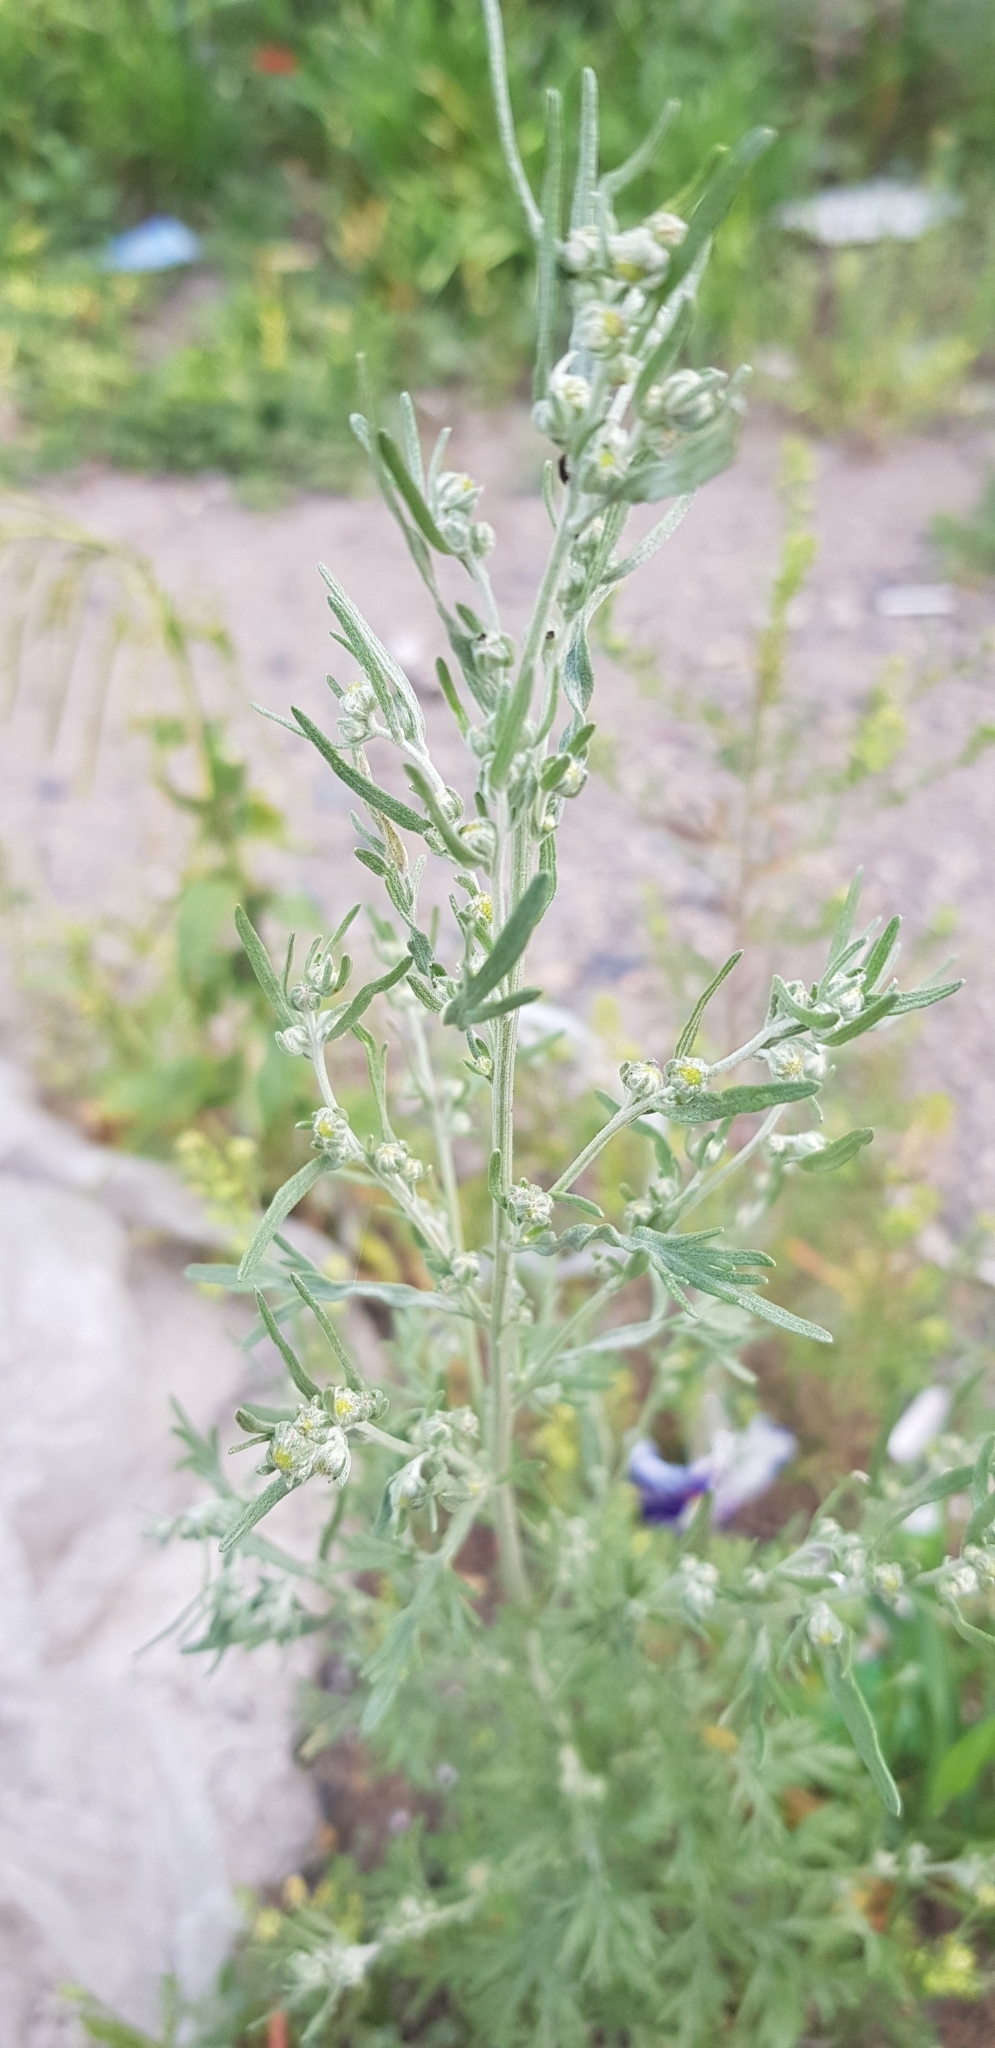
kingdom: Plantae
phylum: Tracheophyta
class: Magnoliopsida
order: Asterales
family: Asteraceae
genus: Artemisia
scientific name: Artemisia sieversiana
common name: Sieversian wormwood
